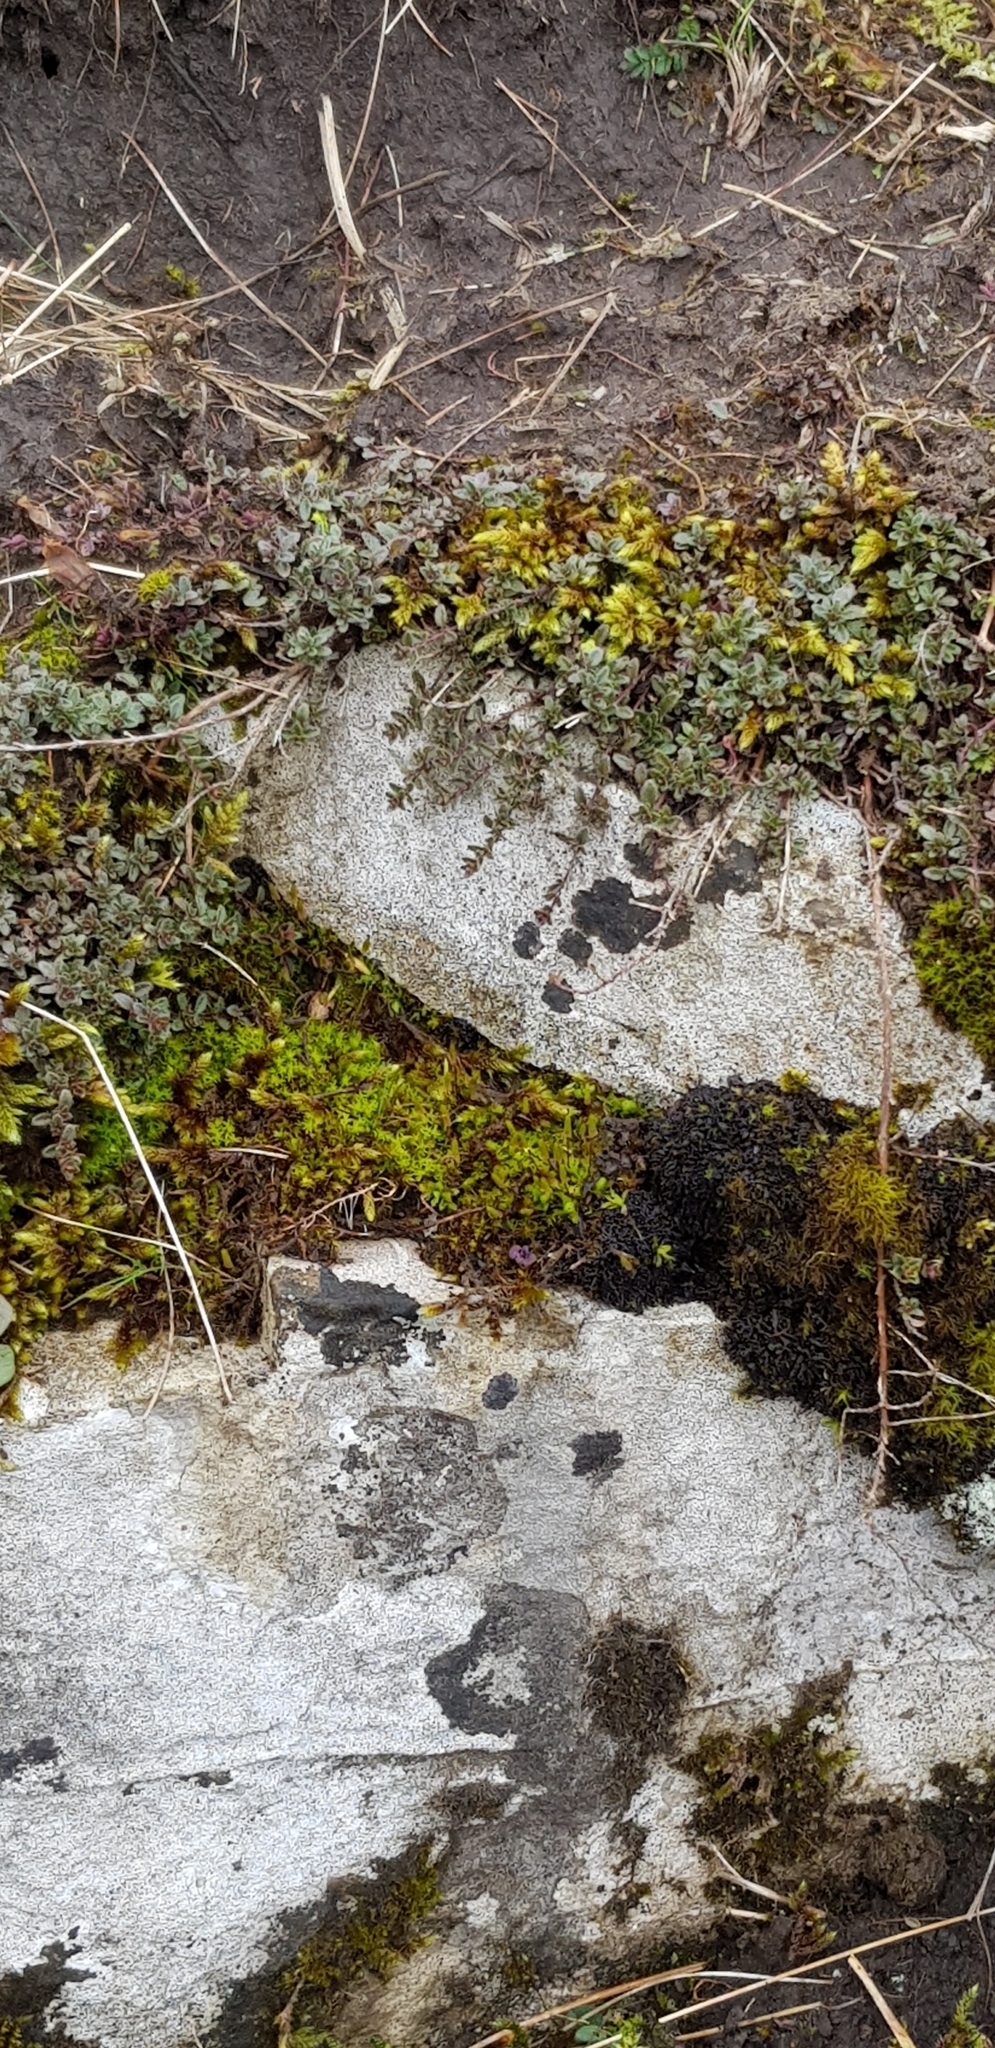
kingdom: Plantae
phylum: Bryophyta
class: Bryopsida
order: Hypnales
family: Hypnaceae
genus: Hypnum
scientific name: Hypnum cupressiforme
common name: Cypress-leaved plait-moss
